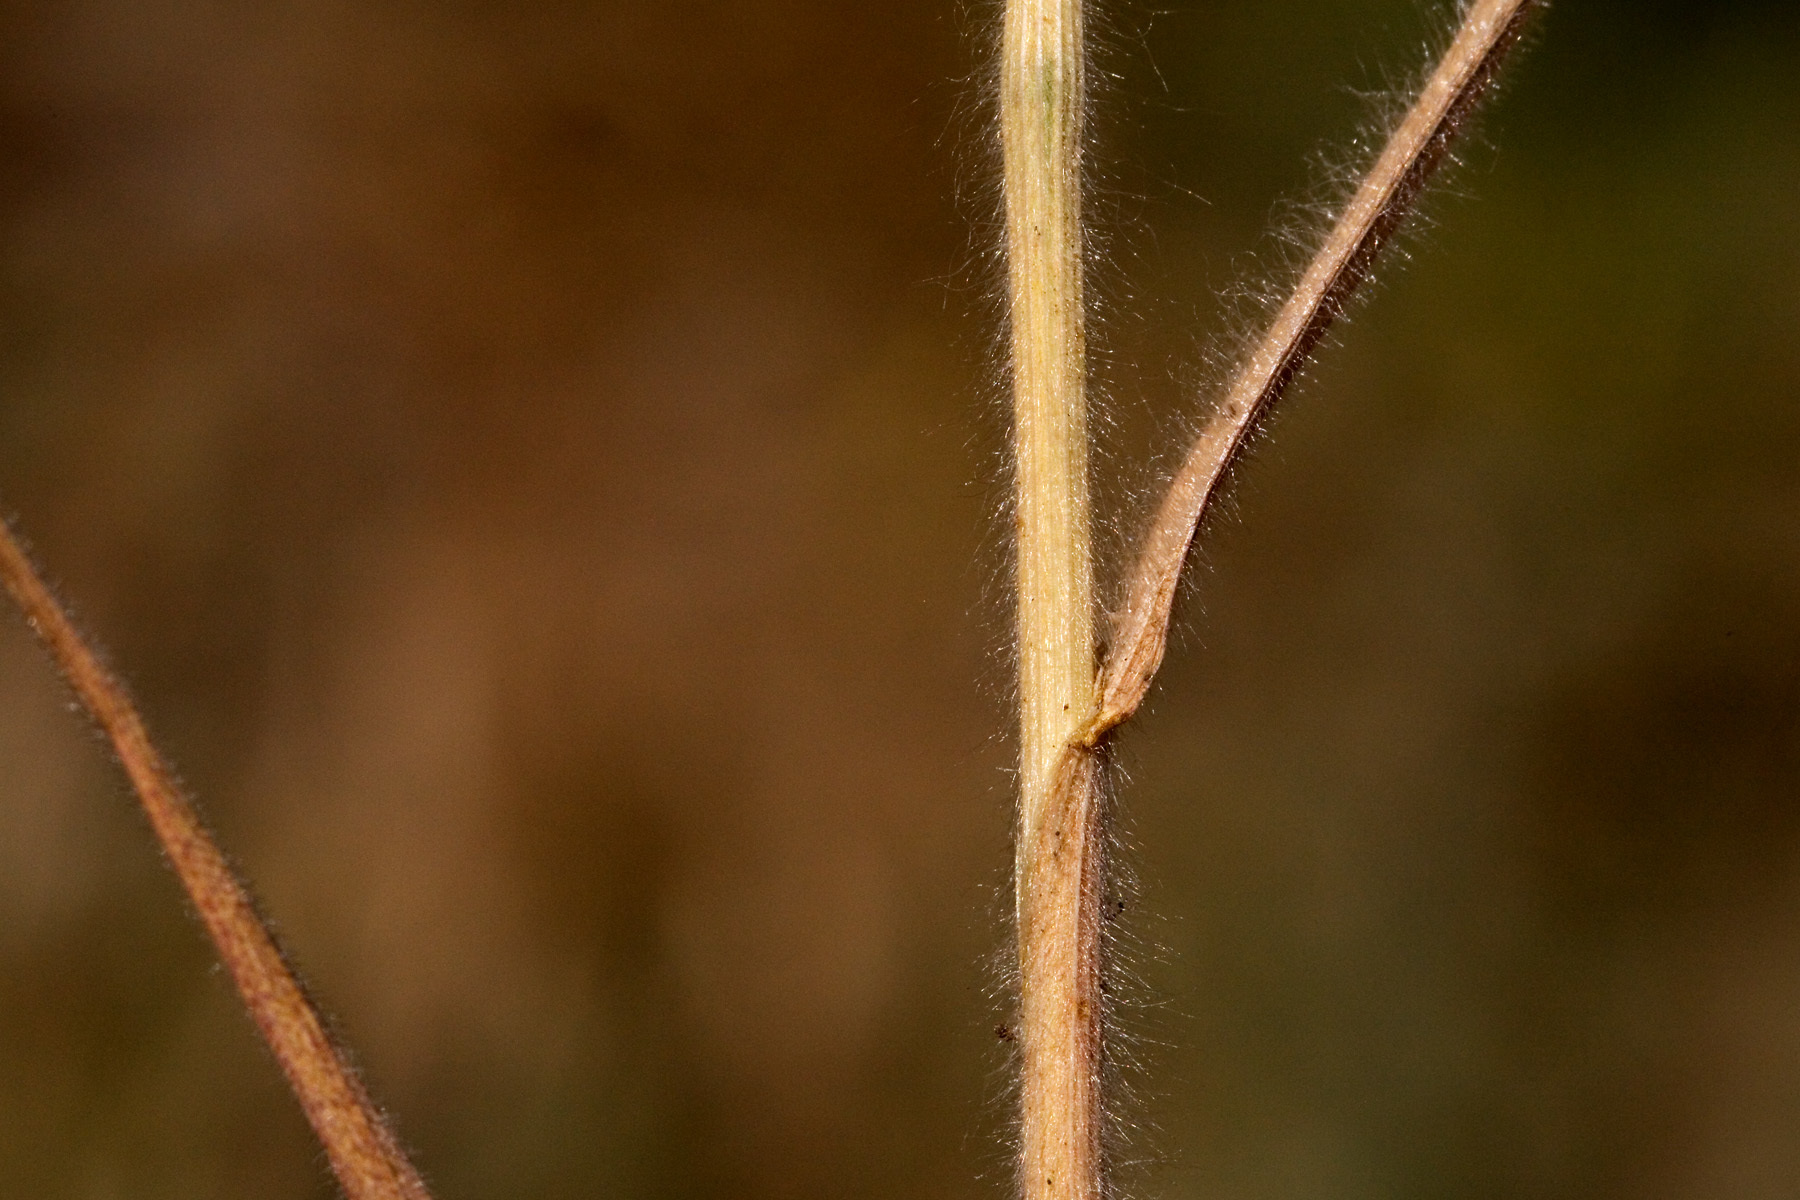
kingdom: Plantae
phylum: Tracheophyta
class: Liliopsida
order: Poales
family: Poaceae
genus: Bromus
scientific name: Bromus japonicus
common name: Japanese brome
